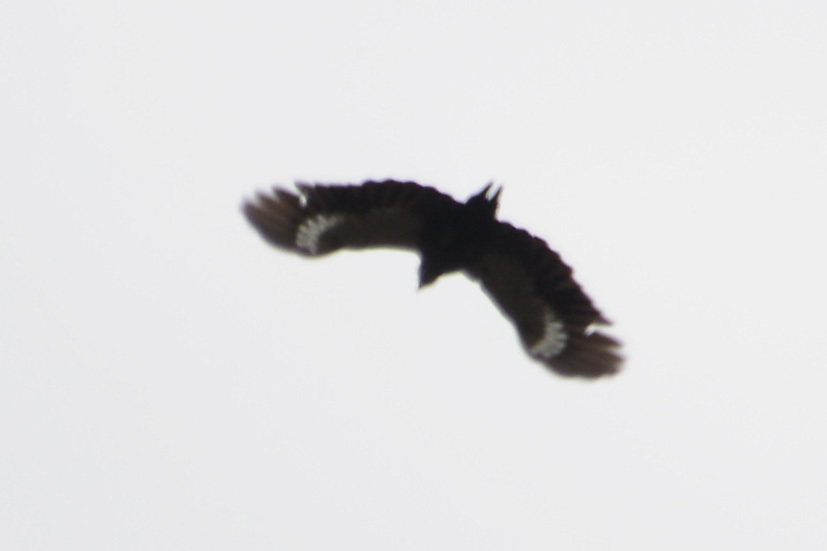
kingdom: Animalia
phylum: Chordata
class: Aves
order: Piciformes
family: Picidae
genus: Dryocopus
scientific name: Dryocopus schulzii
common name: Black-bodied woodpecker
